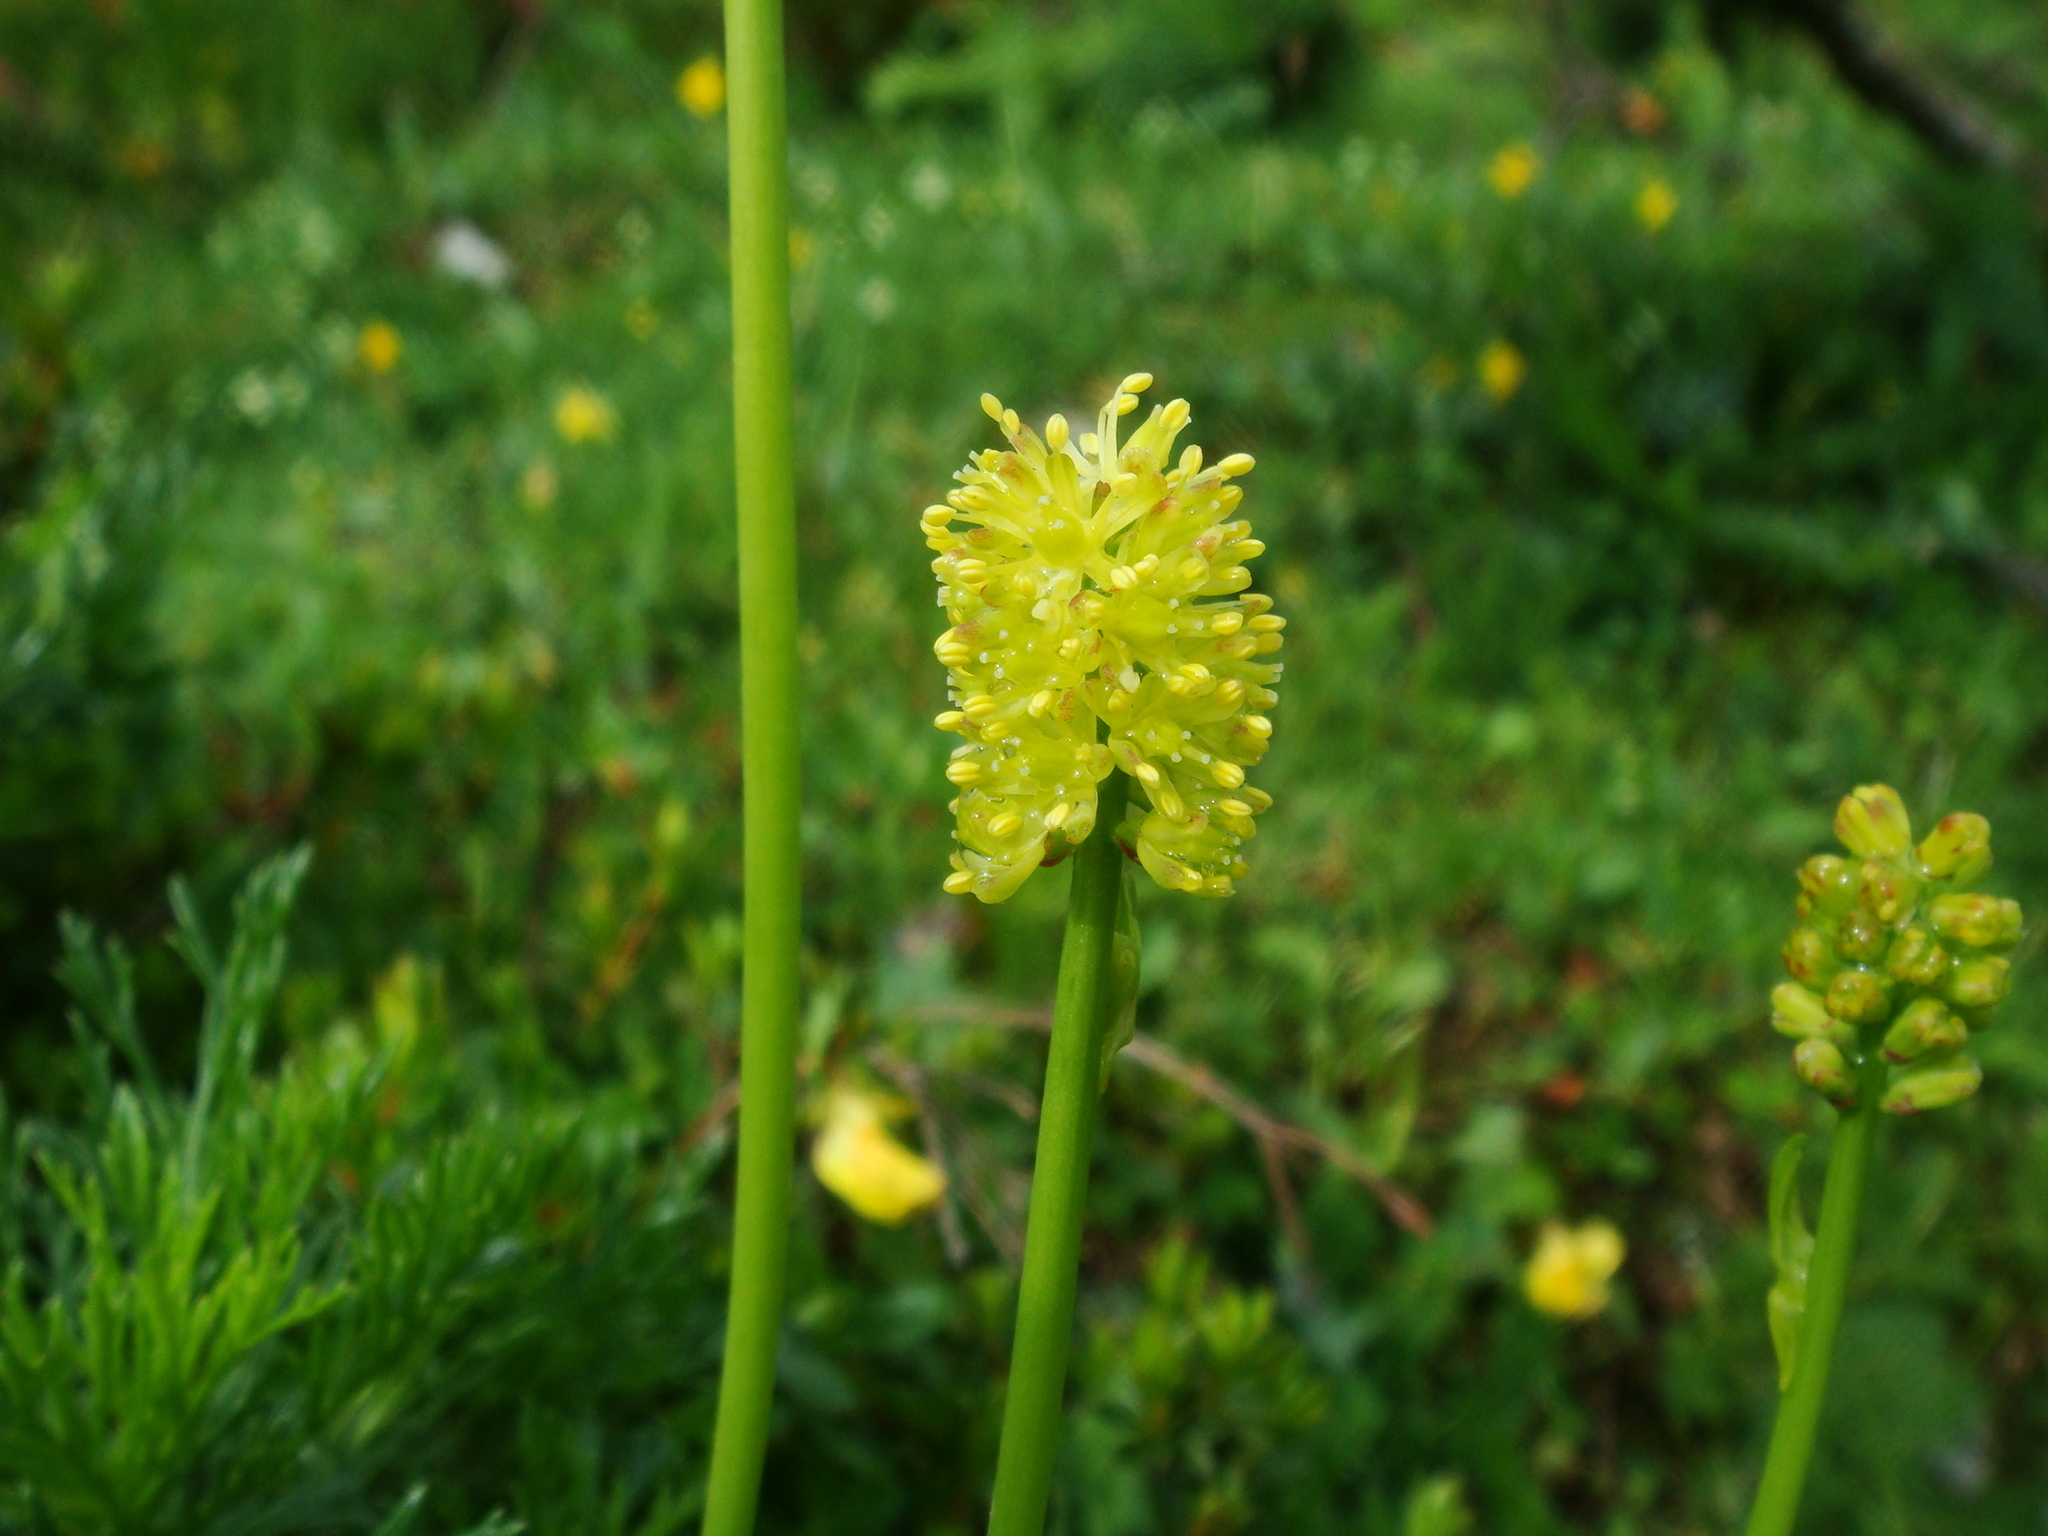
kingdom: Plantae
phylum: Tracheophyta
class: Liliopsida
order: Alismatales
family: Tofieldiaceae
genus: Tofieldia
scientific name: Tofieldia calyculata
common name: German-asphodel
